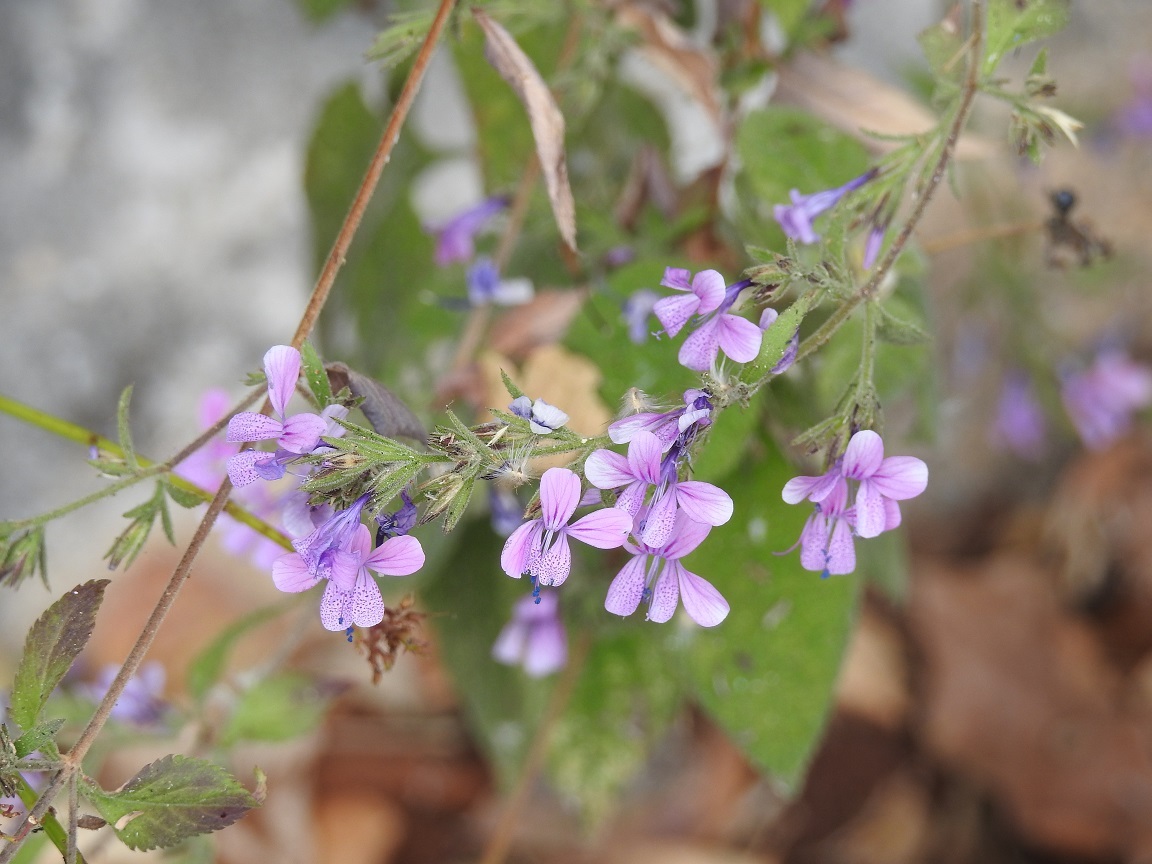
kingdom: Plantae
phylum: Tracheophyta
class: Magnoliopsida
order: Ericales
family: Polemoniaceae
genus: Loeselia
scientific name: Loeselia glandulosa
